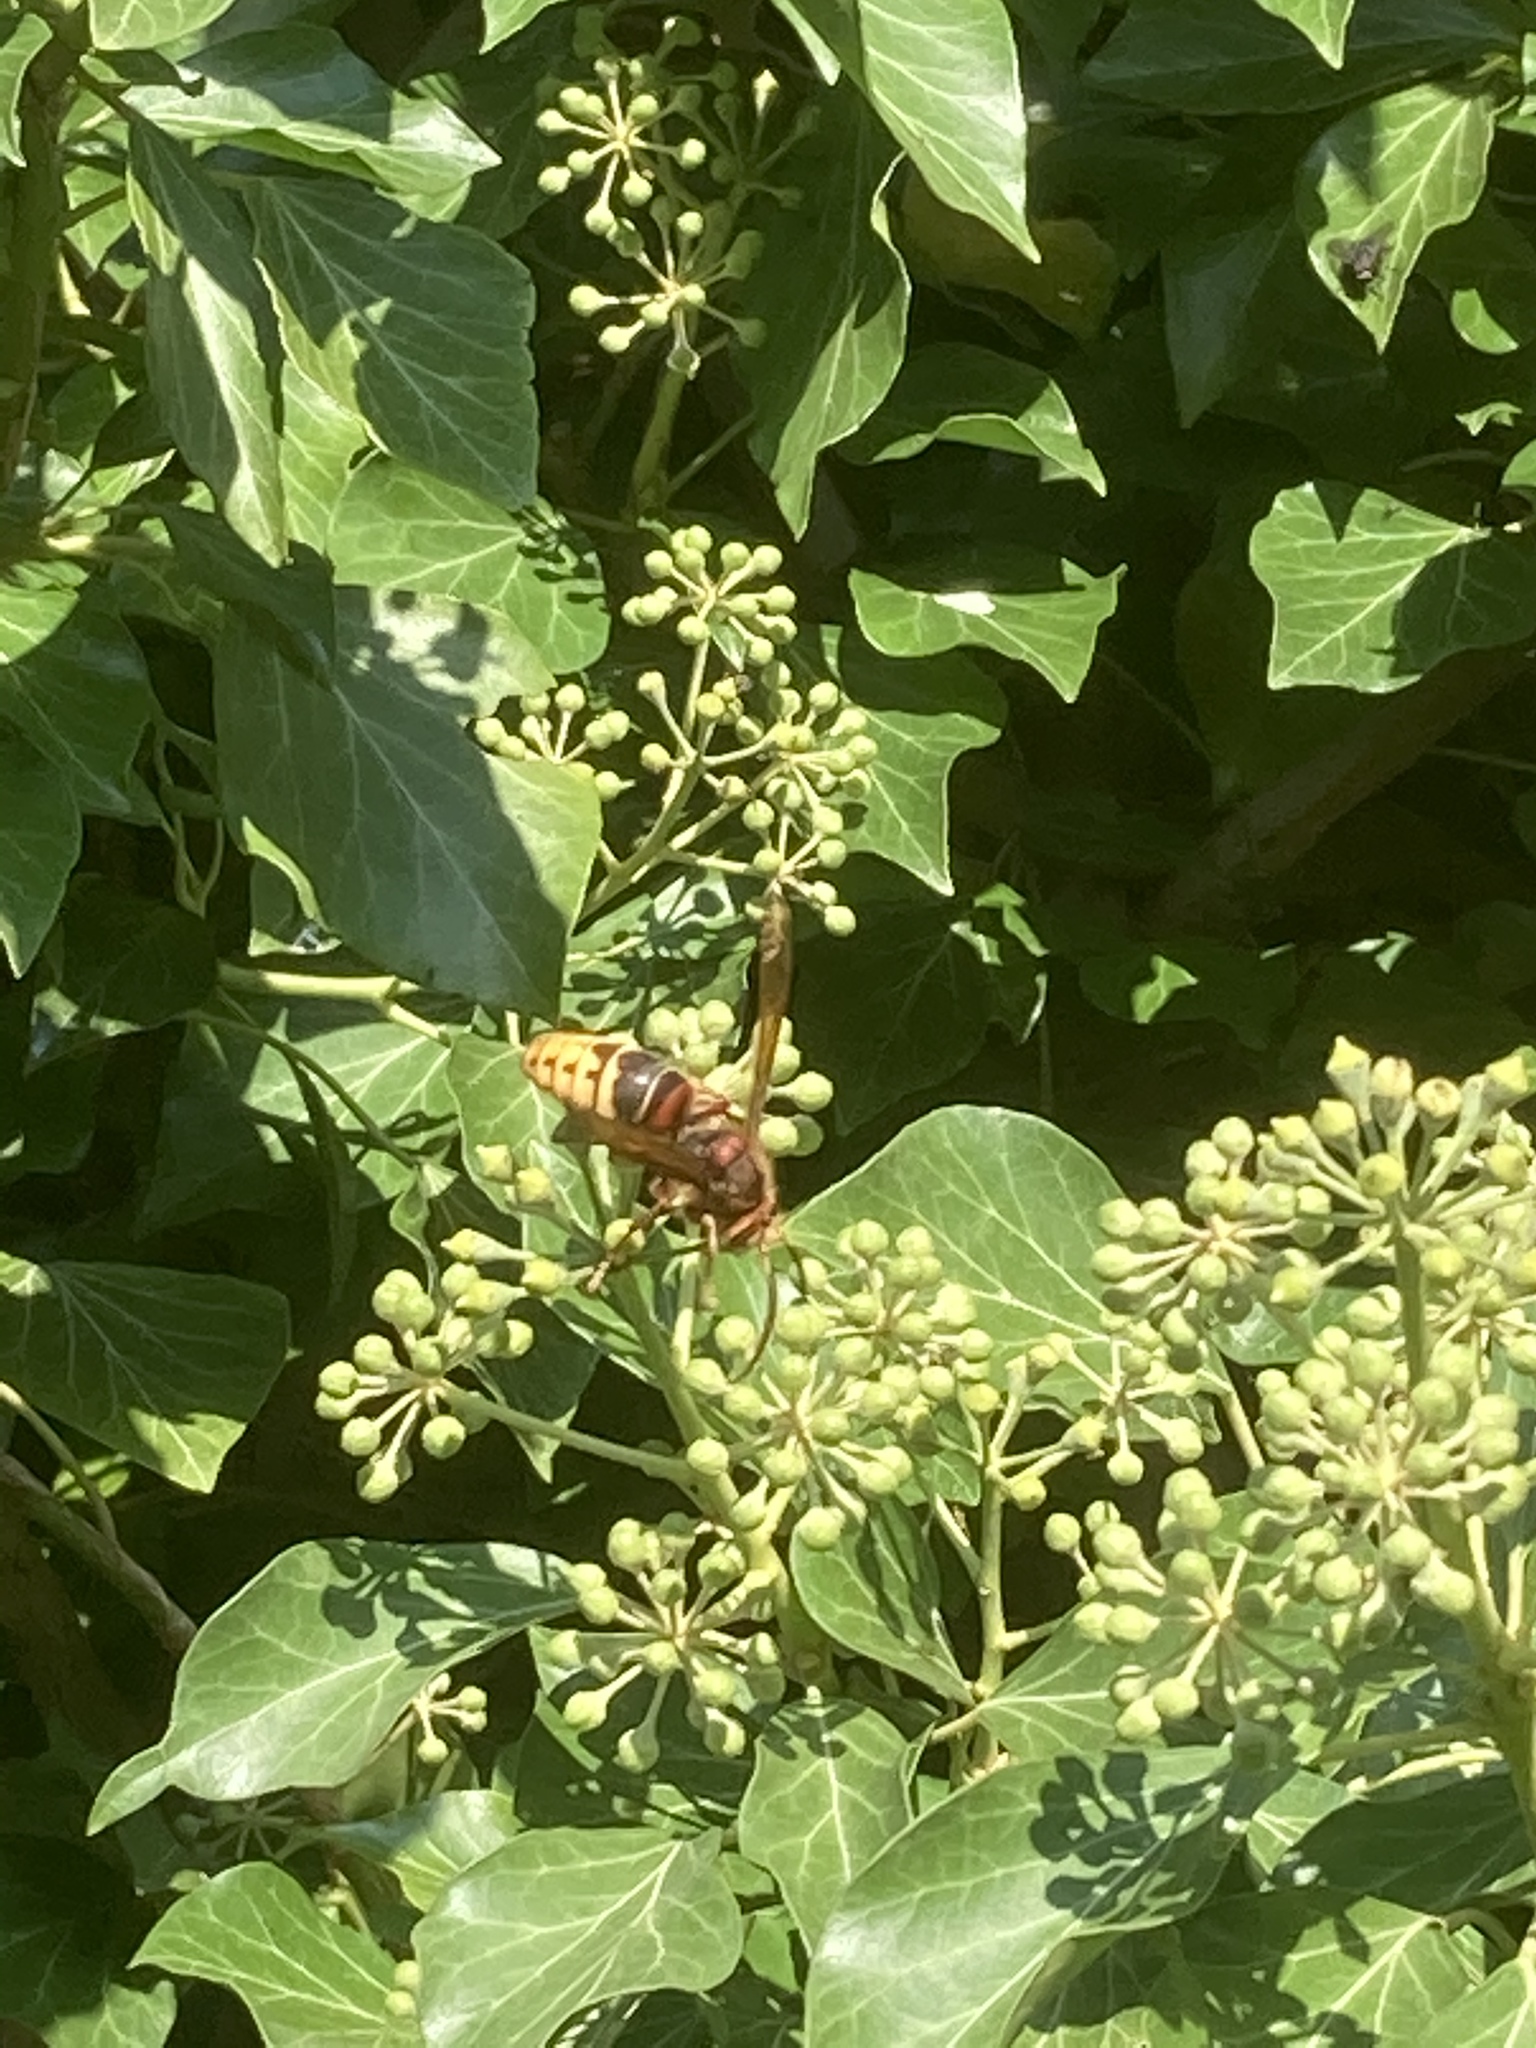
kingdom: Plantae
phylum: Tracheophyta
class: Magnoliopsida
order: Apiales
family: Araliaceae
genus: Hedera
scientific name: Hedera helix
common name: Ivy
